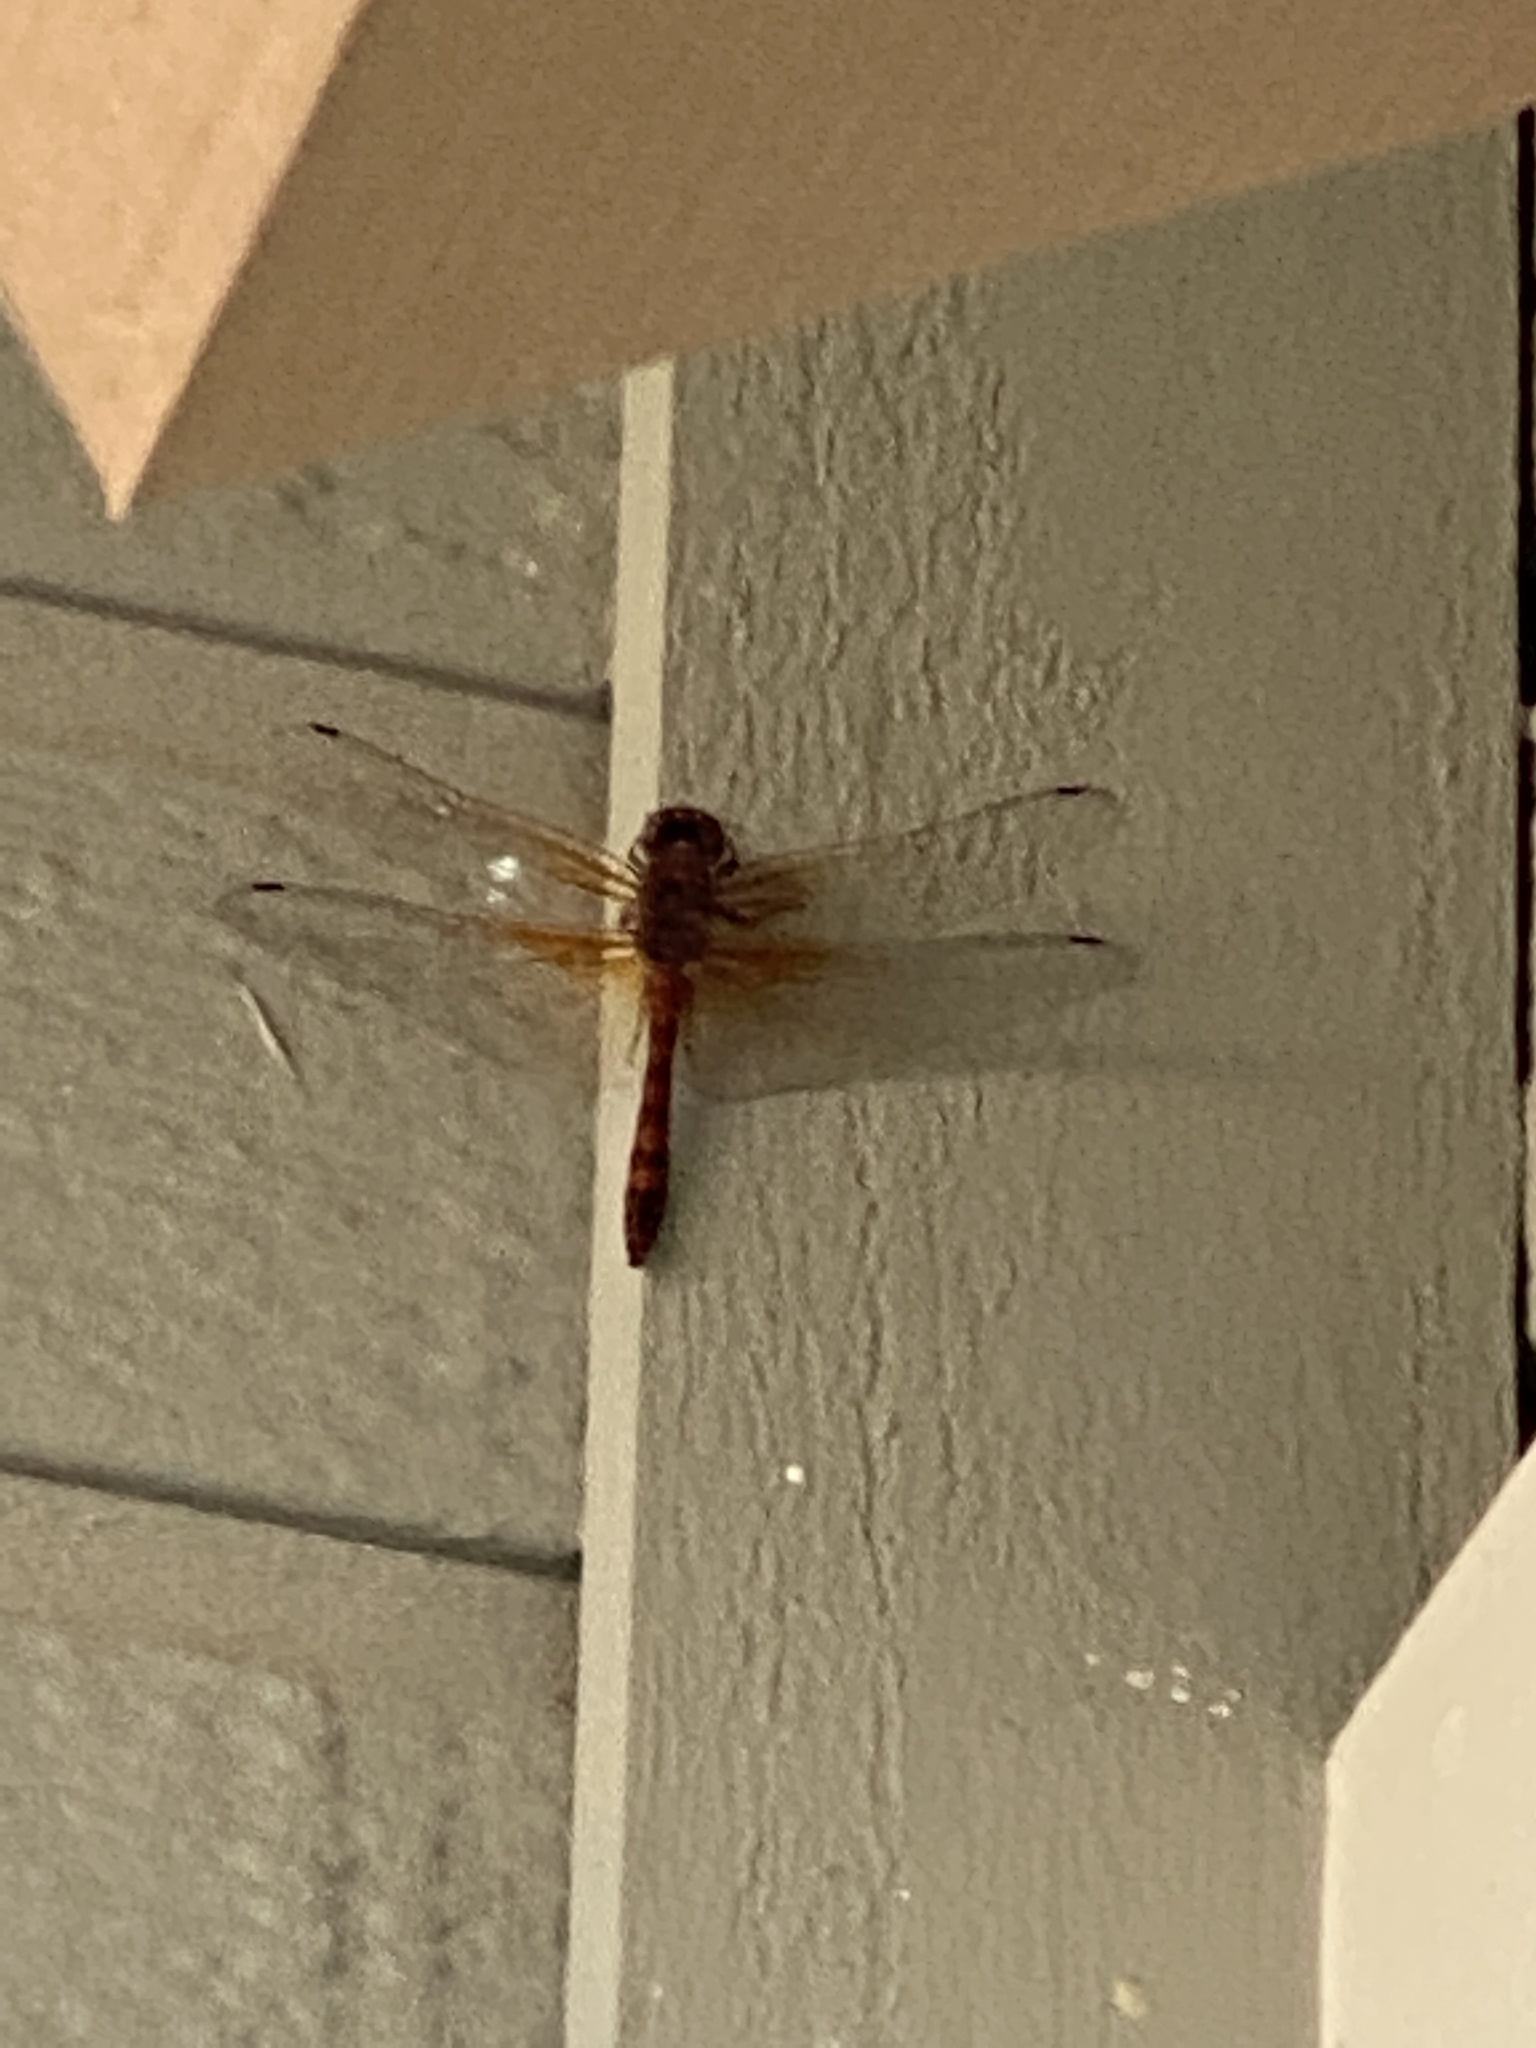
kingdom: Animalia
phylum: Arthropoda
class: Insecta
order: Odonata
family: Libellulidae
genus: Paltothemis
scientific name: Paltothemis lineatipes
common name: Red rock skimmer
